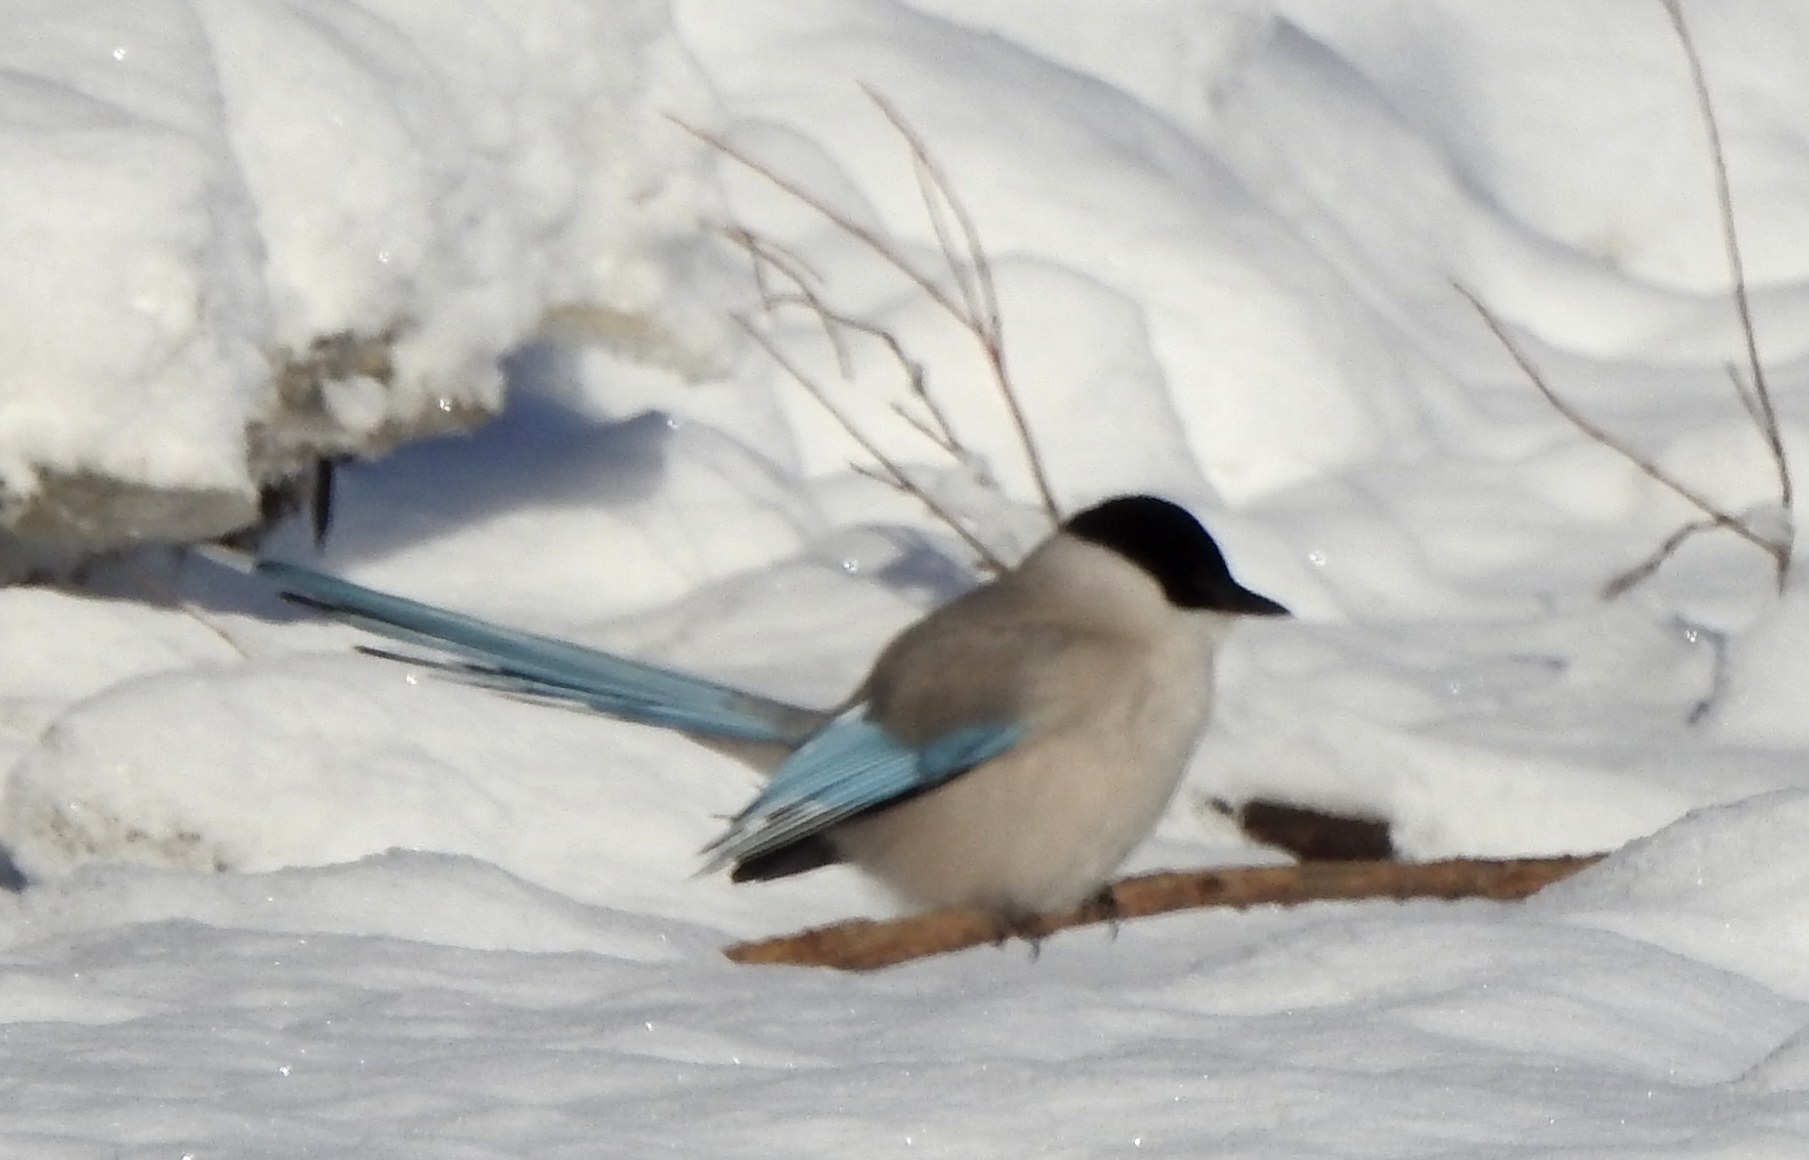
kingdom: Animalia
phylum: Chordata
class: Aves
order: Passeriformes
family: Corvidae
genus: Cyanopica
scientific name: Cyanopica cyanus
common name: Azure-winged magpie
